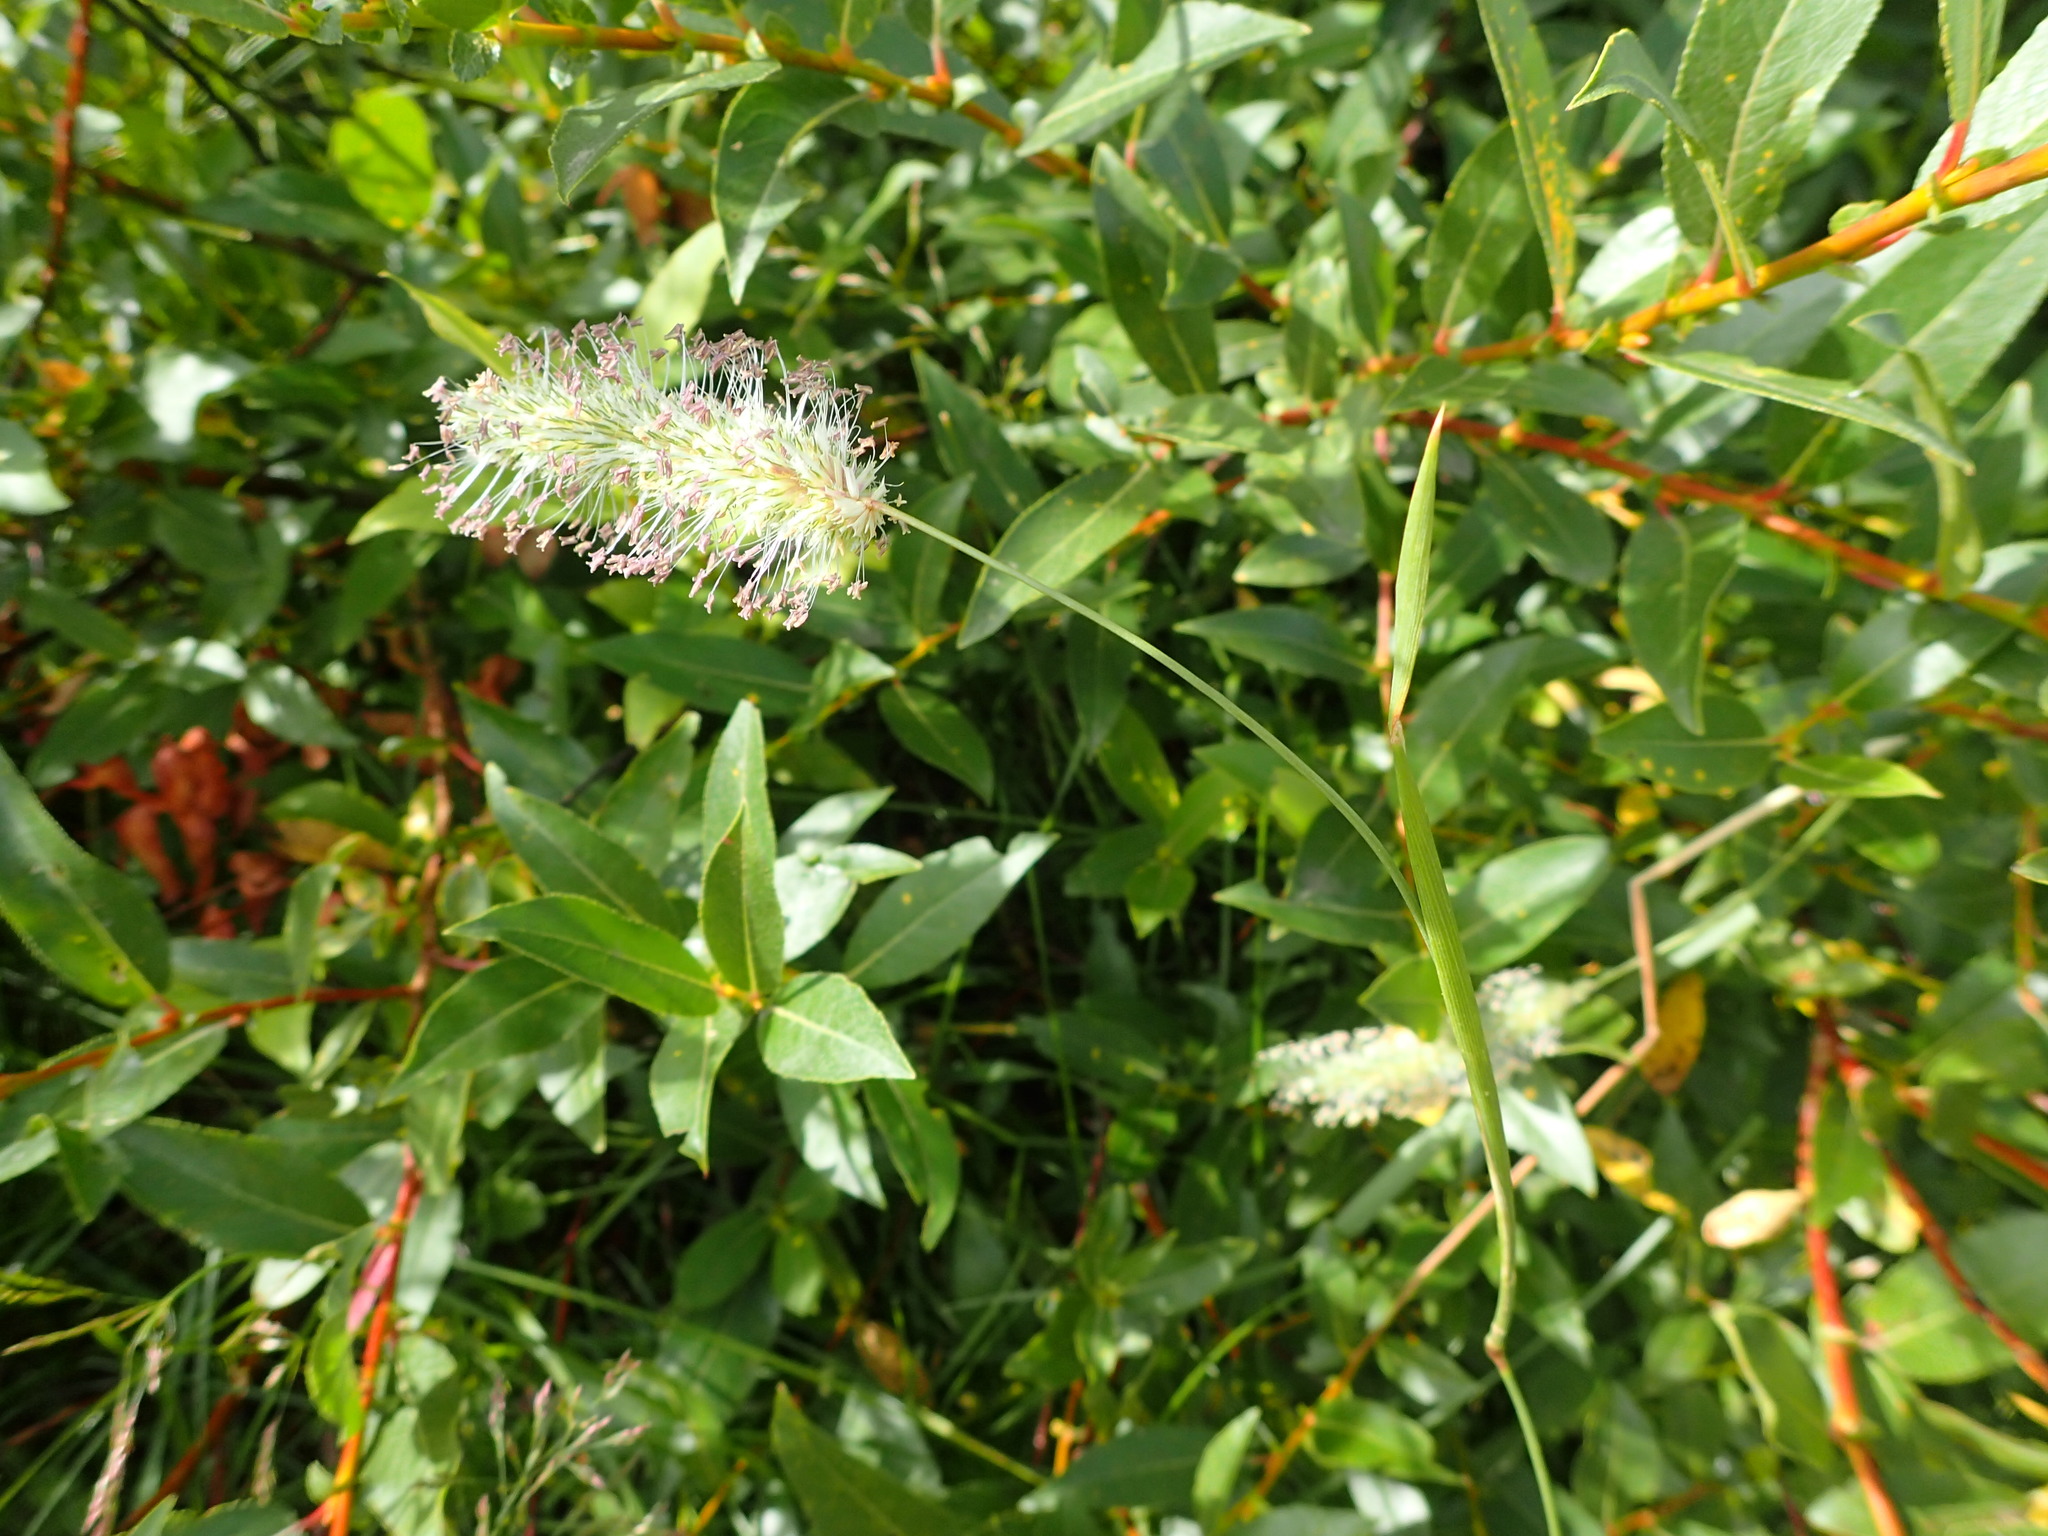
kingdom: Plantae
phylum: Tracheophyta
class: Liliopsida
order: Poales
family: Poaceae
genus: Phleum
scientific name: Phleum pratense
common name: Timothy grass
